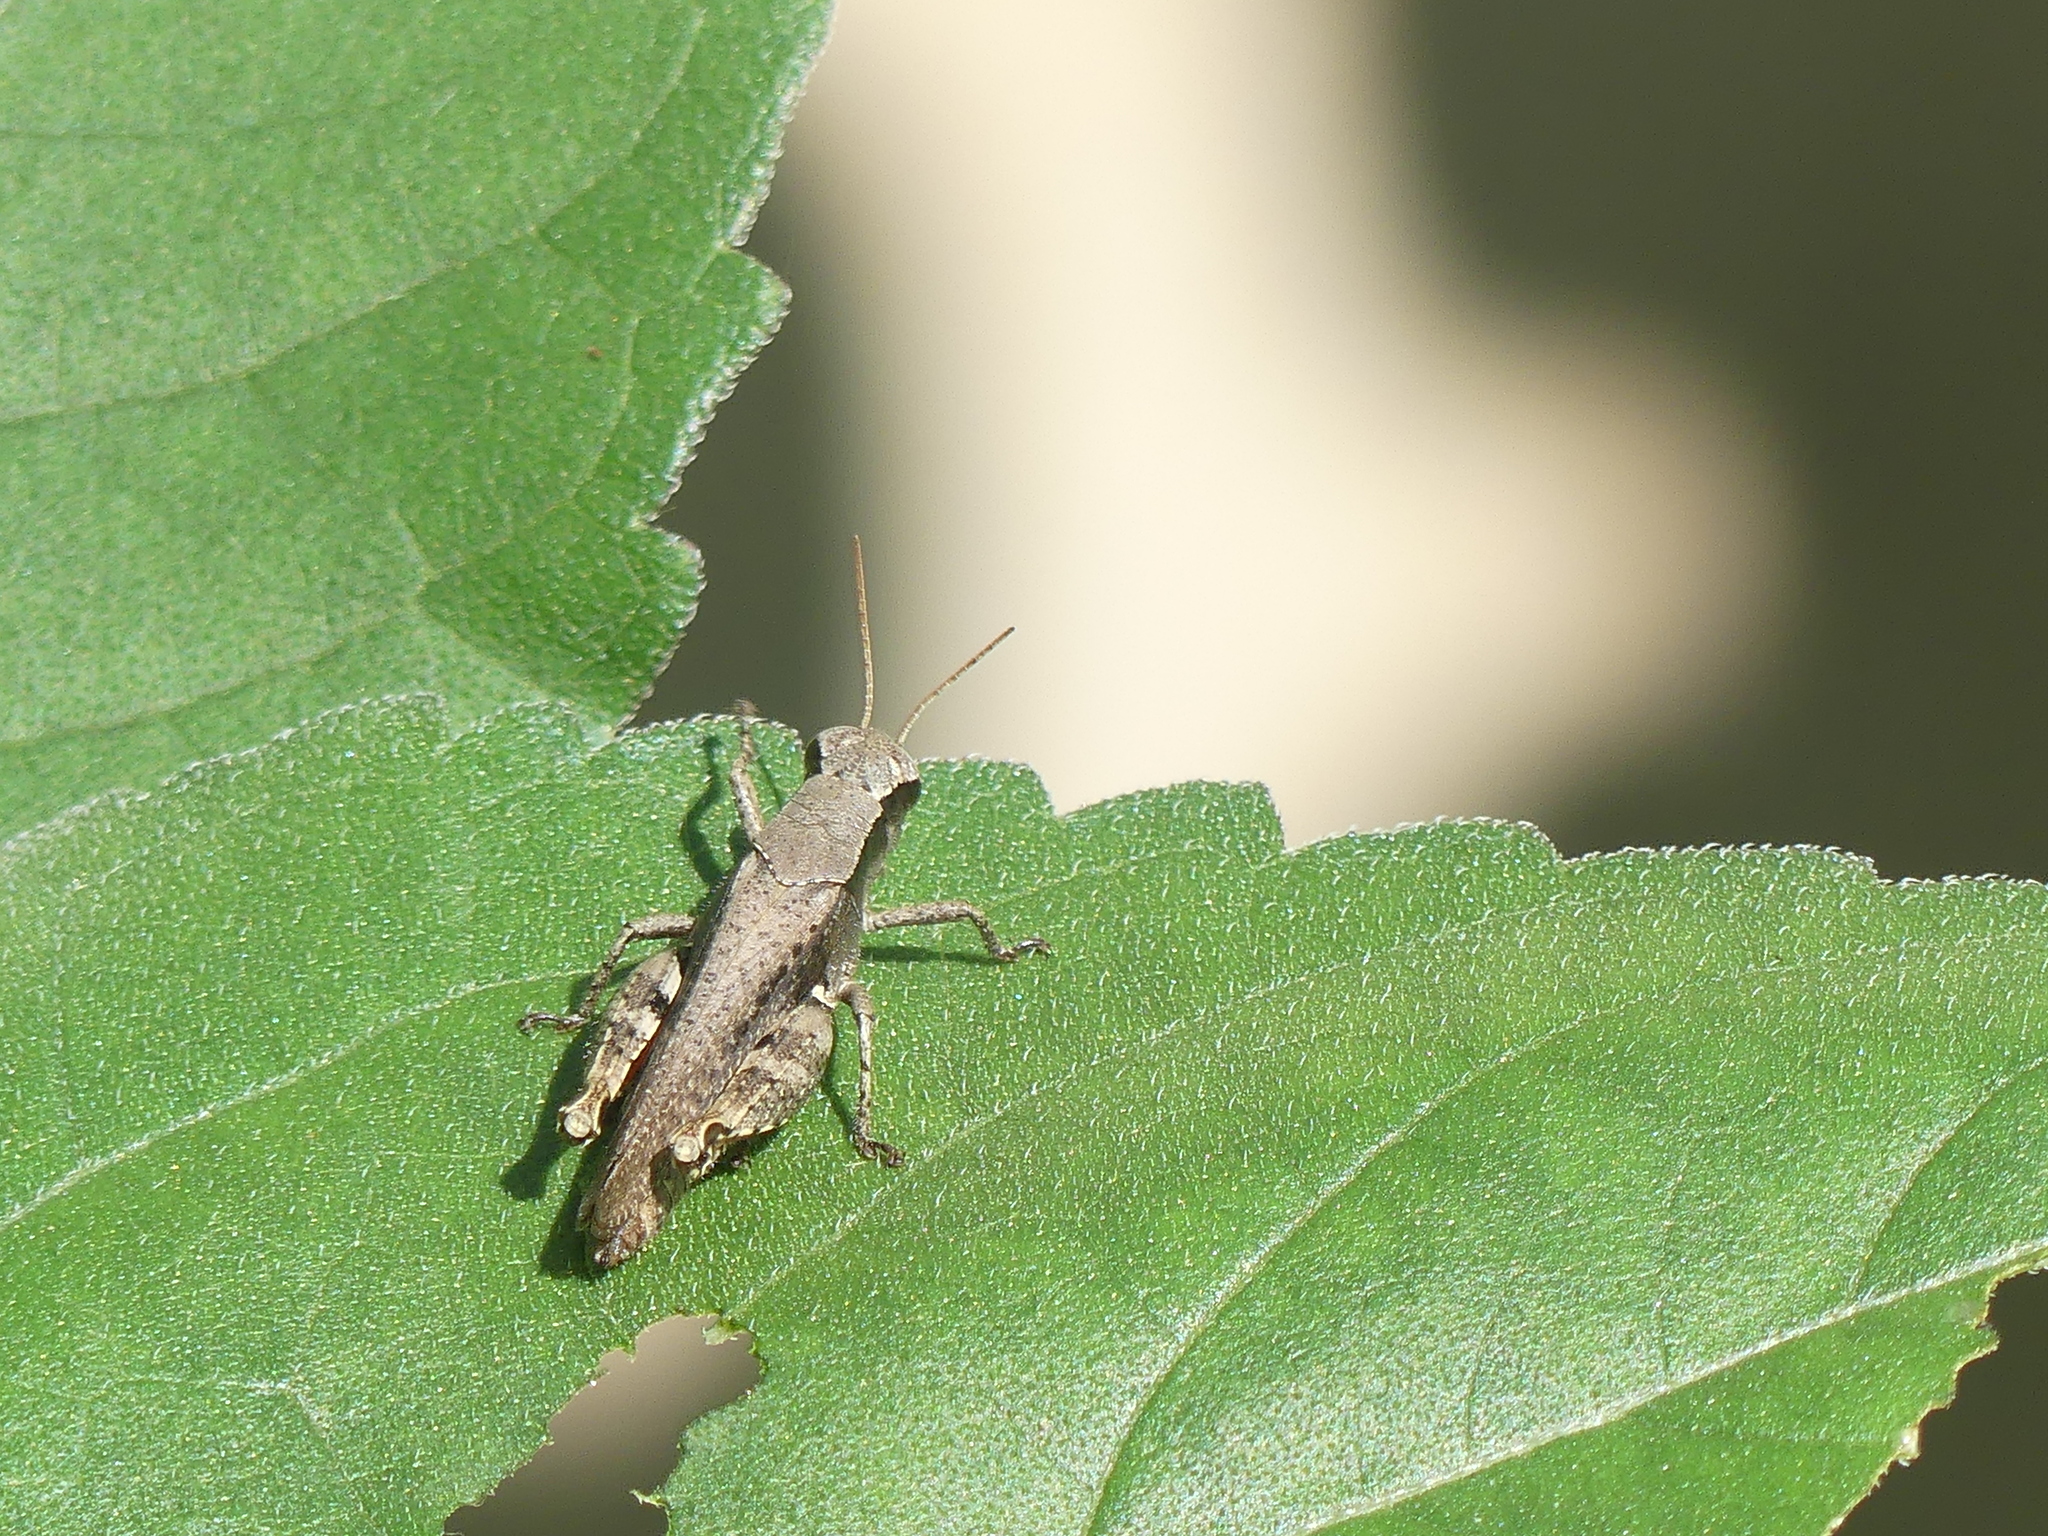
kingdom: Animalia
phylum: Arthropoda
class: Insecta
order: Orthoptera
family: Acrididae
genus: Aidemona
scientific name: Aidemona azteca
